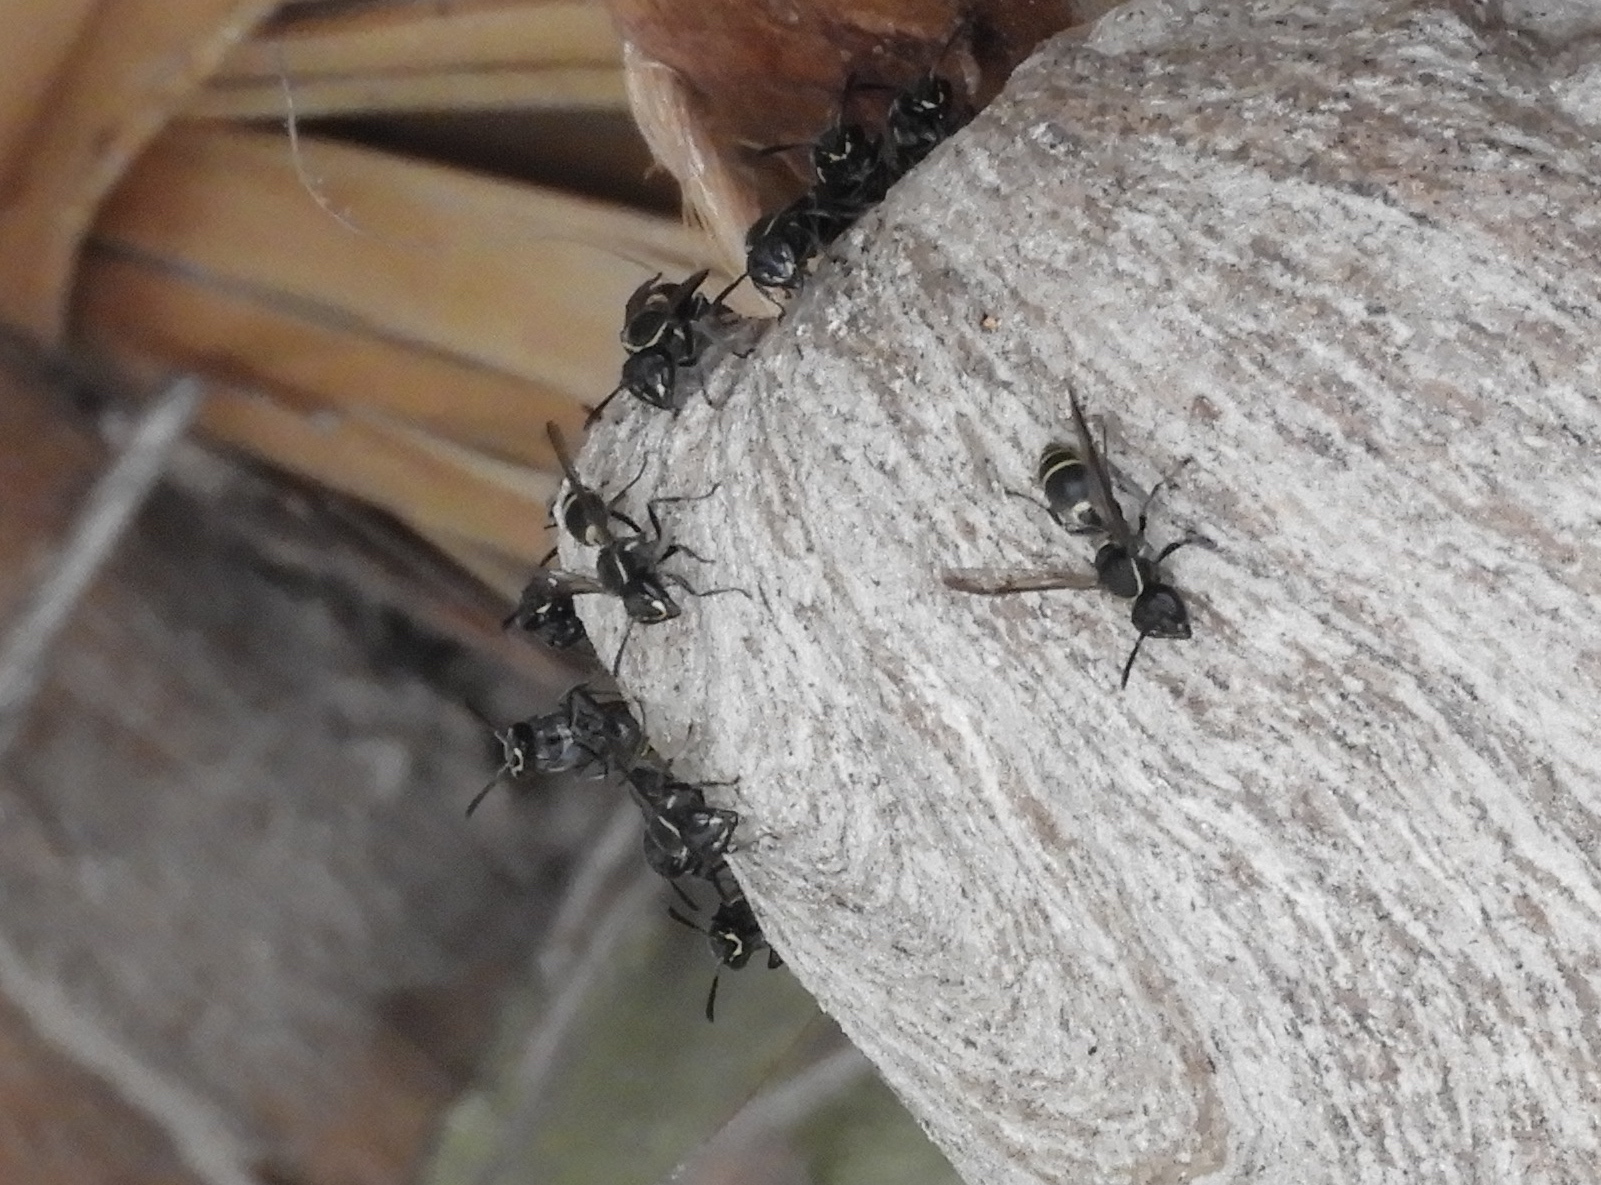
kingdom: Animalia
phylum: Arthropoda
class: Insecta
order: Hymenoptera
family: Eumenidae
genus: Polybia
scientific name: Polybia plebeja
